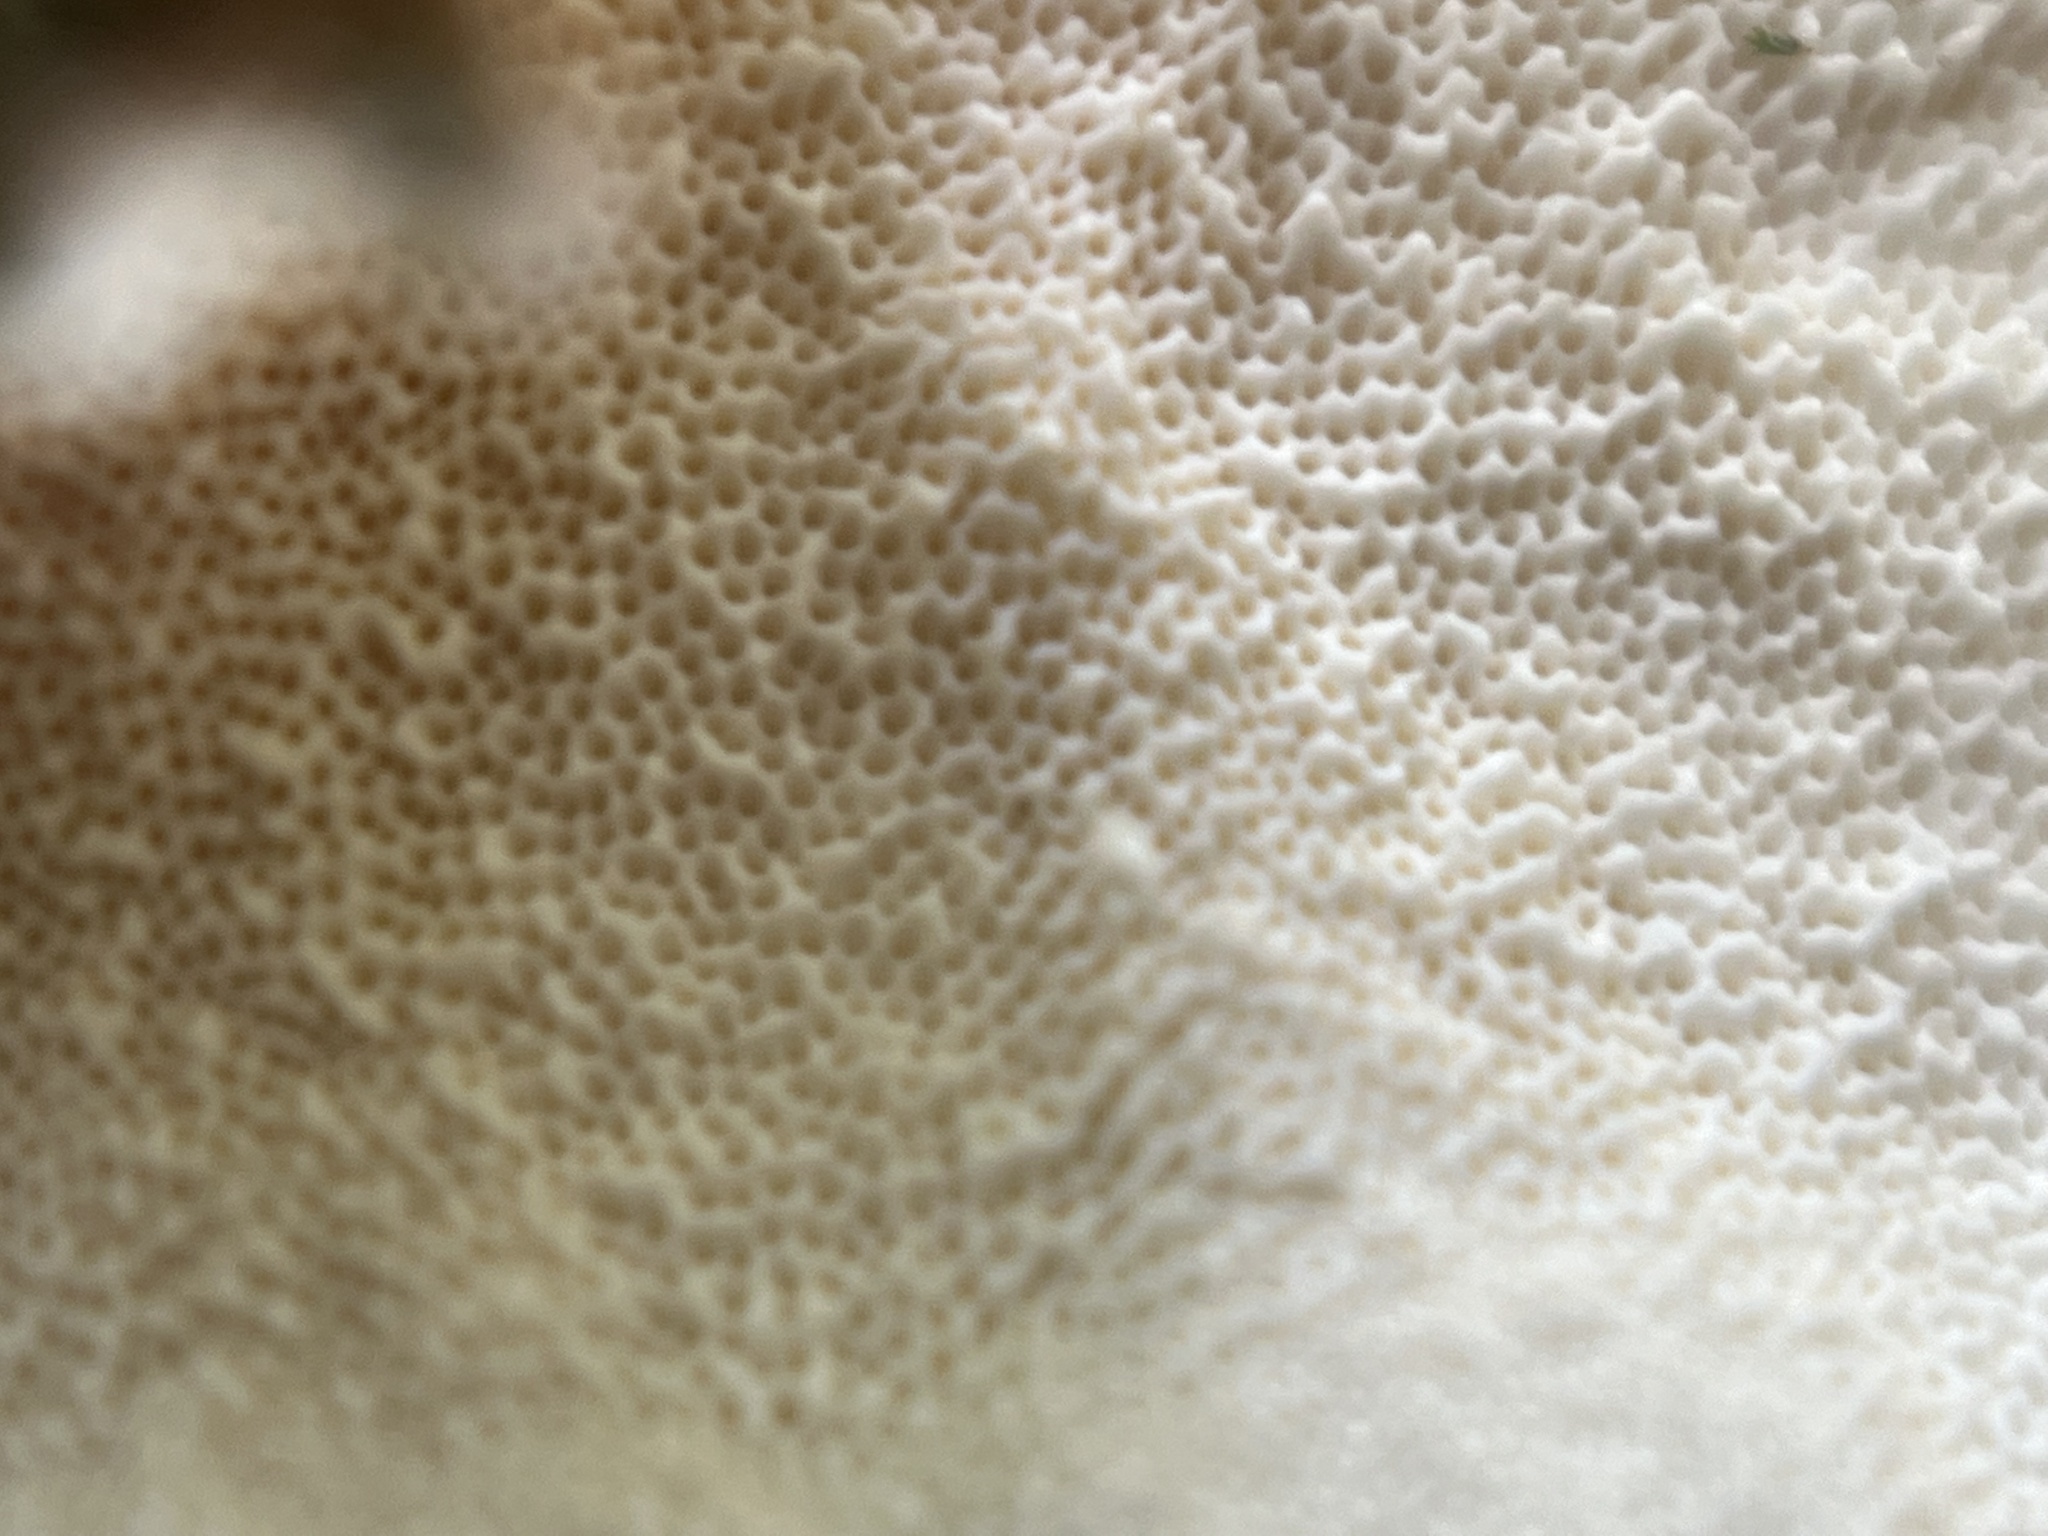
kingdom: Fungi
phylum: Basidiomycota
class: Agaricomycetes
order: Polyporales
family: Polyporaceae
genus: Trametes
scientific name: Trametes versicolor
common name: Turkeytail
